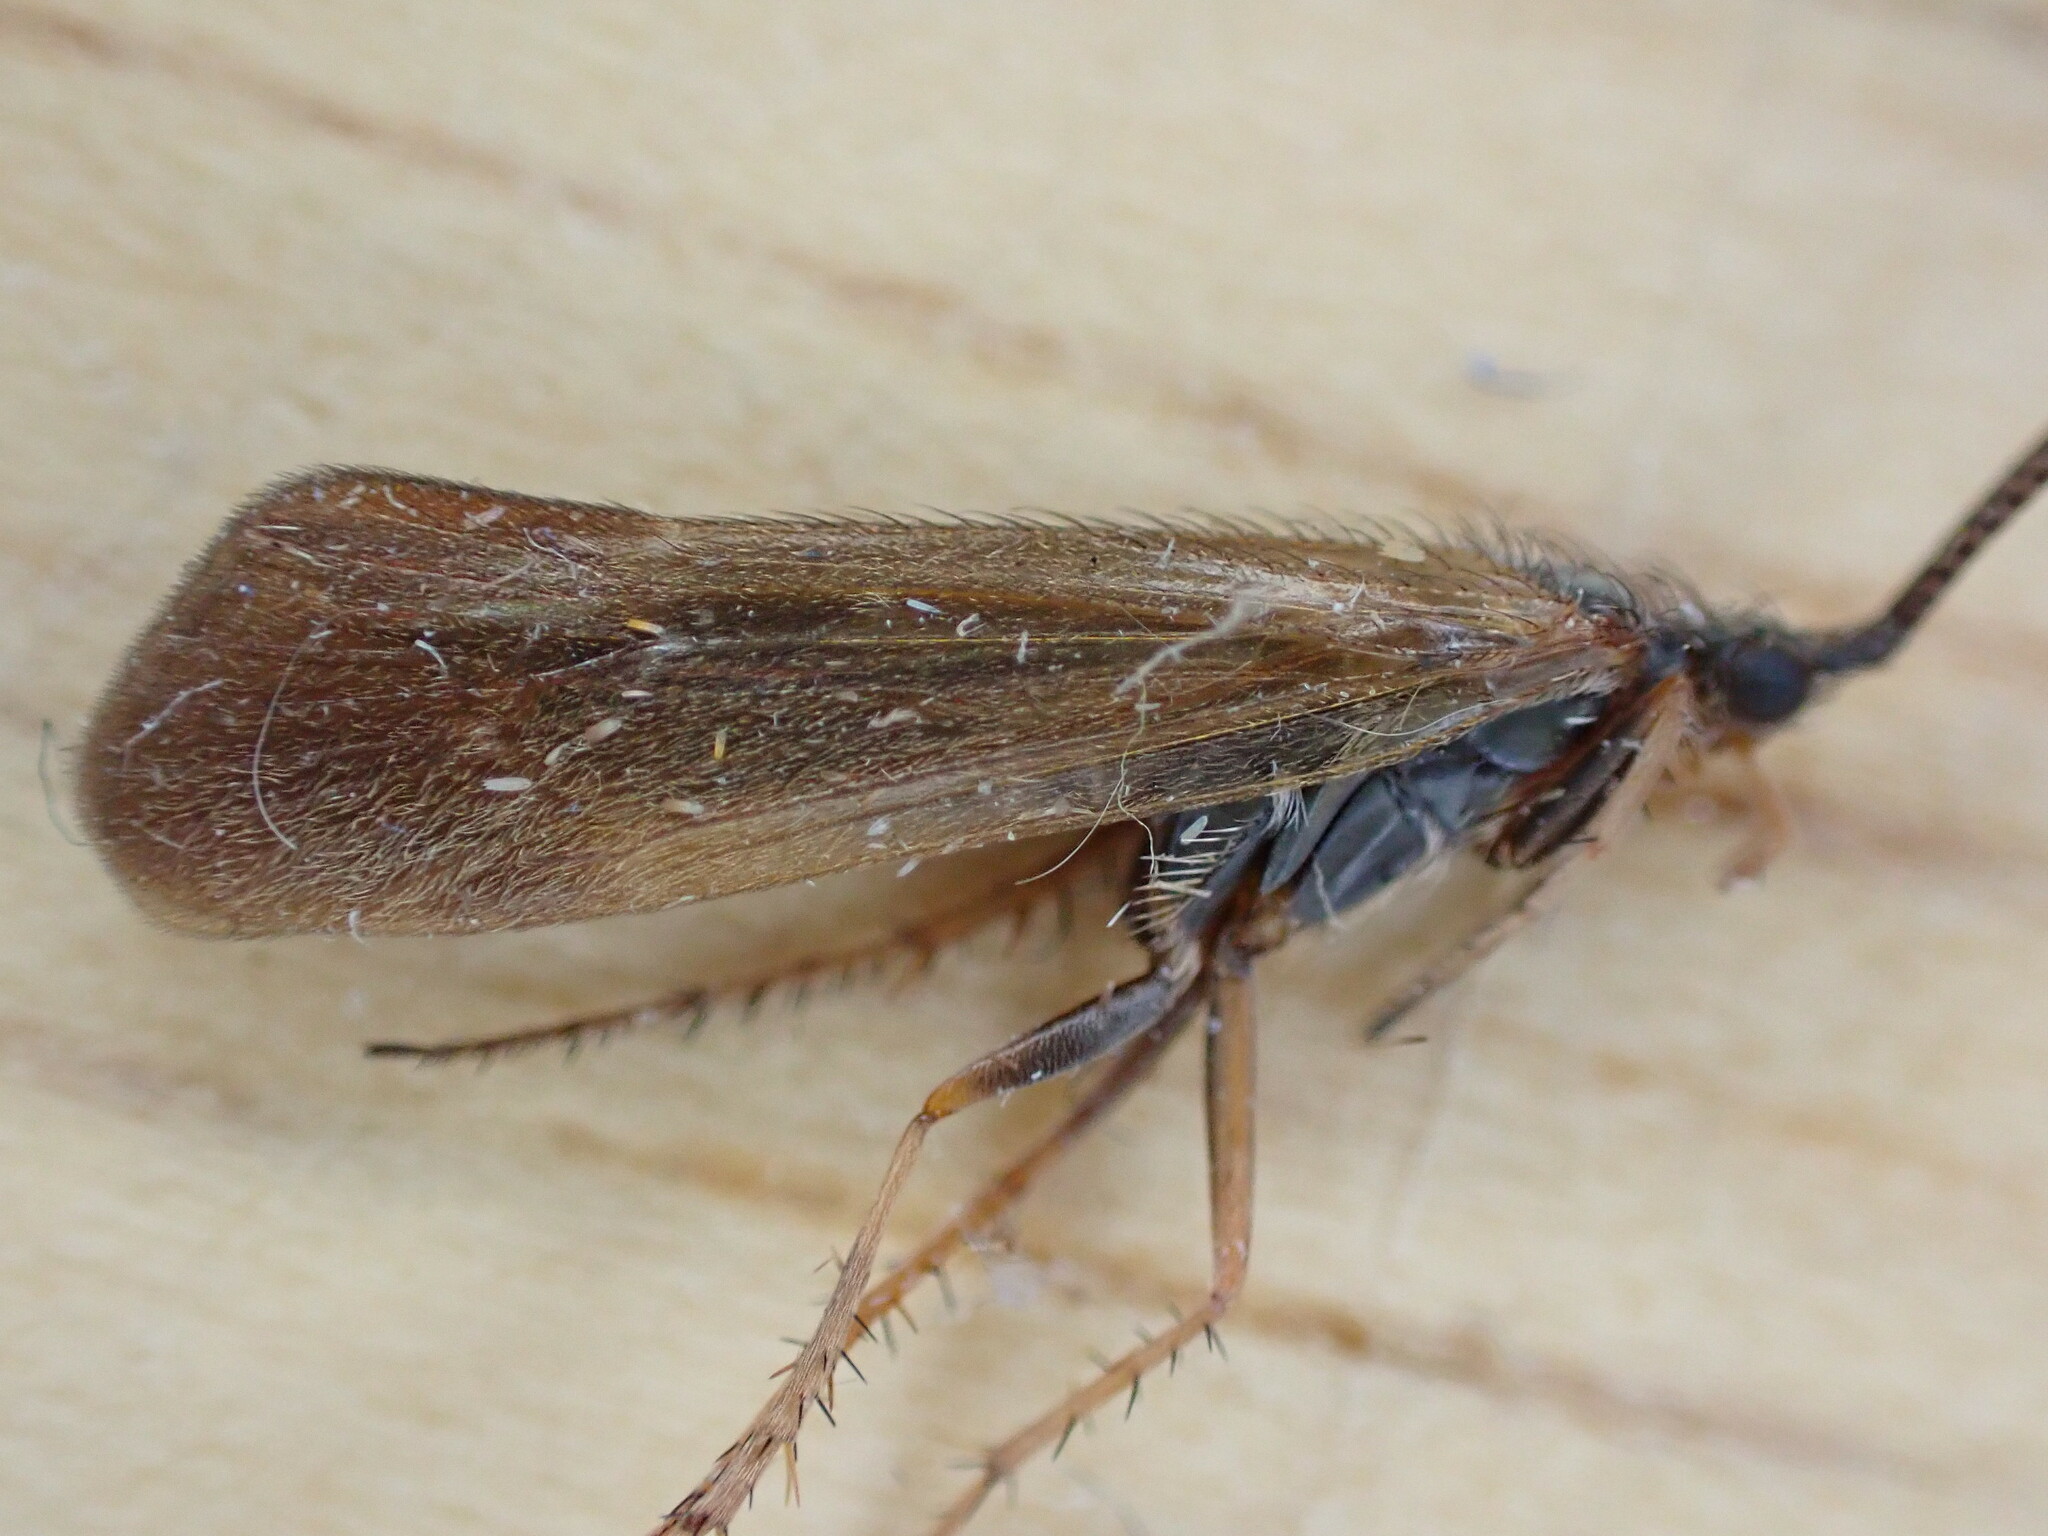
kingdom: Animalia
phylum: Arthropoda
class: Insecta
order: Trichoptera
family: Limnephilidae
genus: Limnephilus
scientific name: Limnephilus auricula
